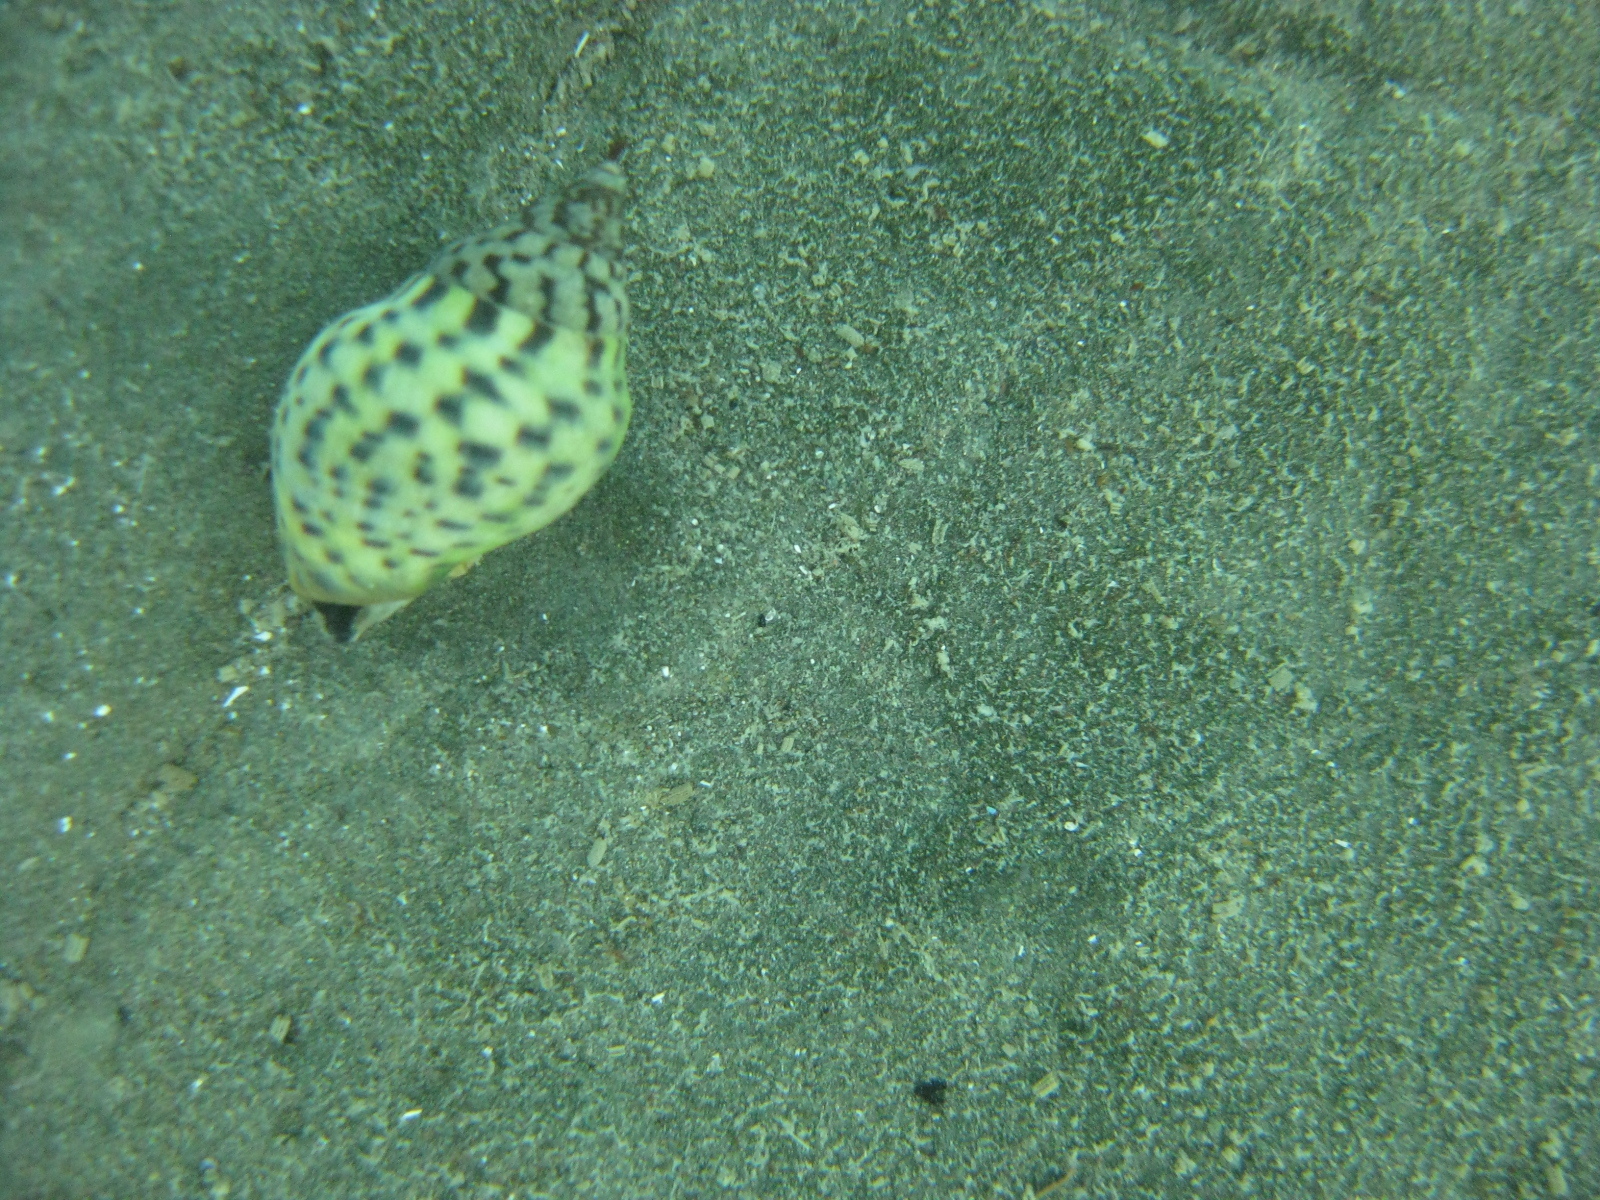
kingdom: Animalia
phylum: Mollusca
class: Gastropoda
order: Neogastropoda
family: Cominellidae
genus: Cominella
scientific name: Cominella maculosa
